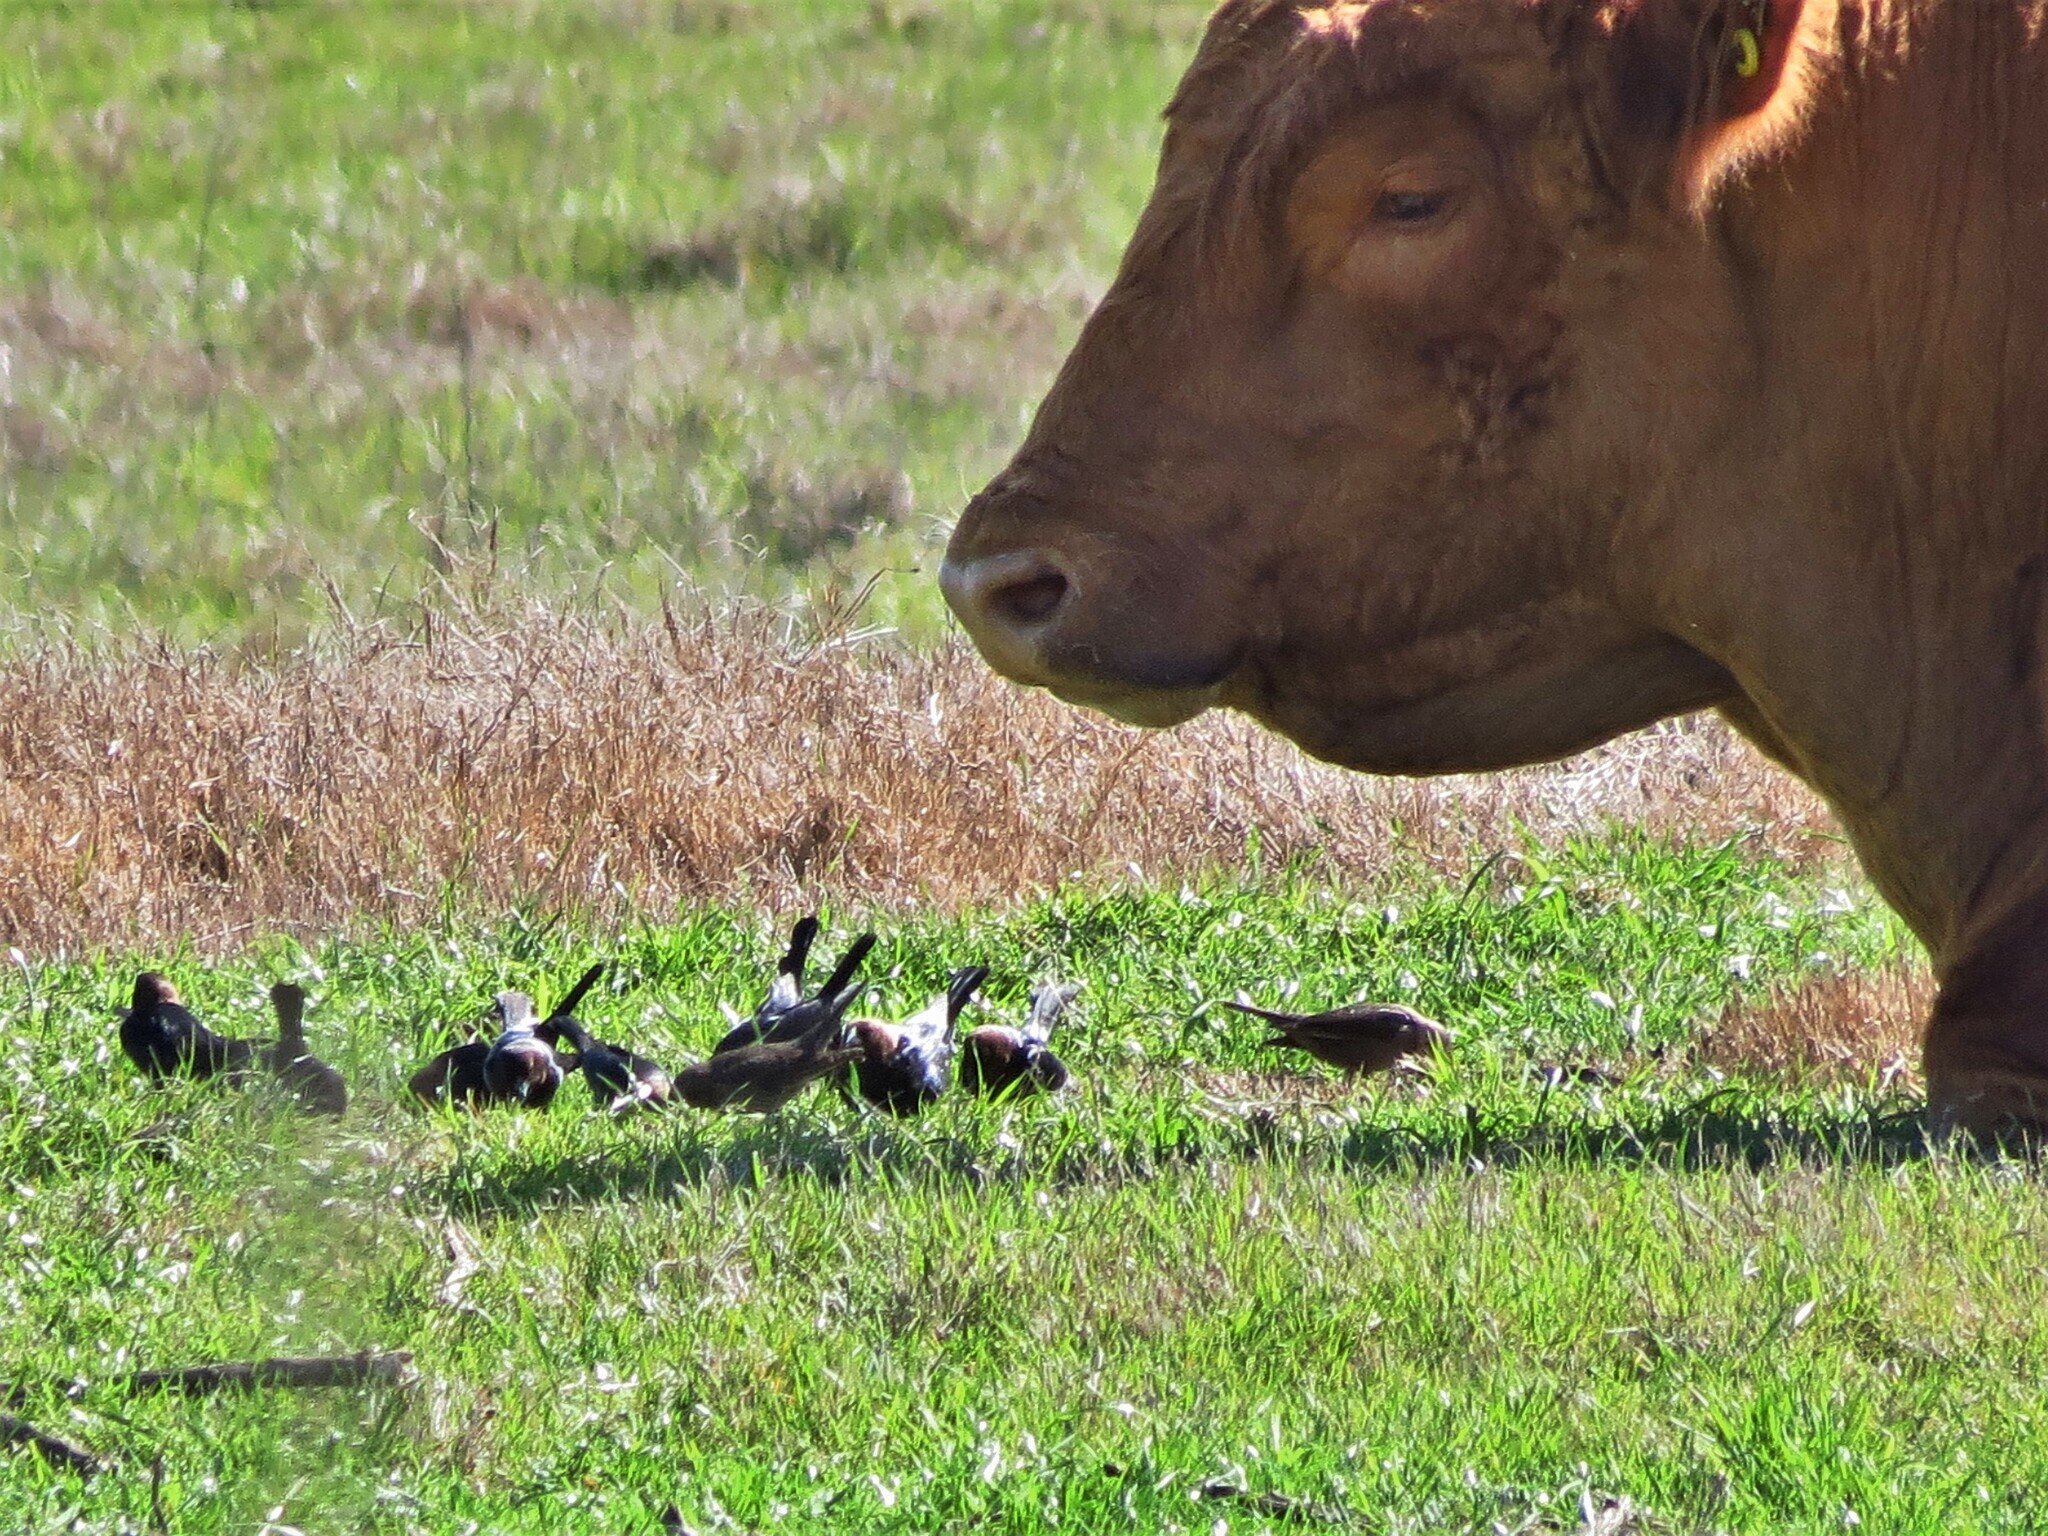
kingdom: Animalia
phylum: Chordata
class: Aves
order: Passeriformes
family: Icteridae
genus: Molothrus
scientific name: Molothrus ater
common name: Brown-headed cowbird
